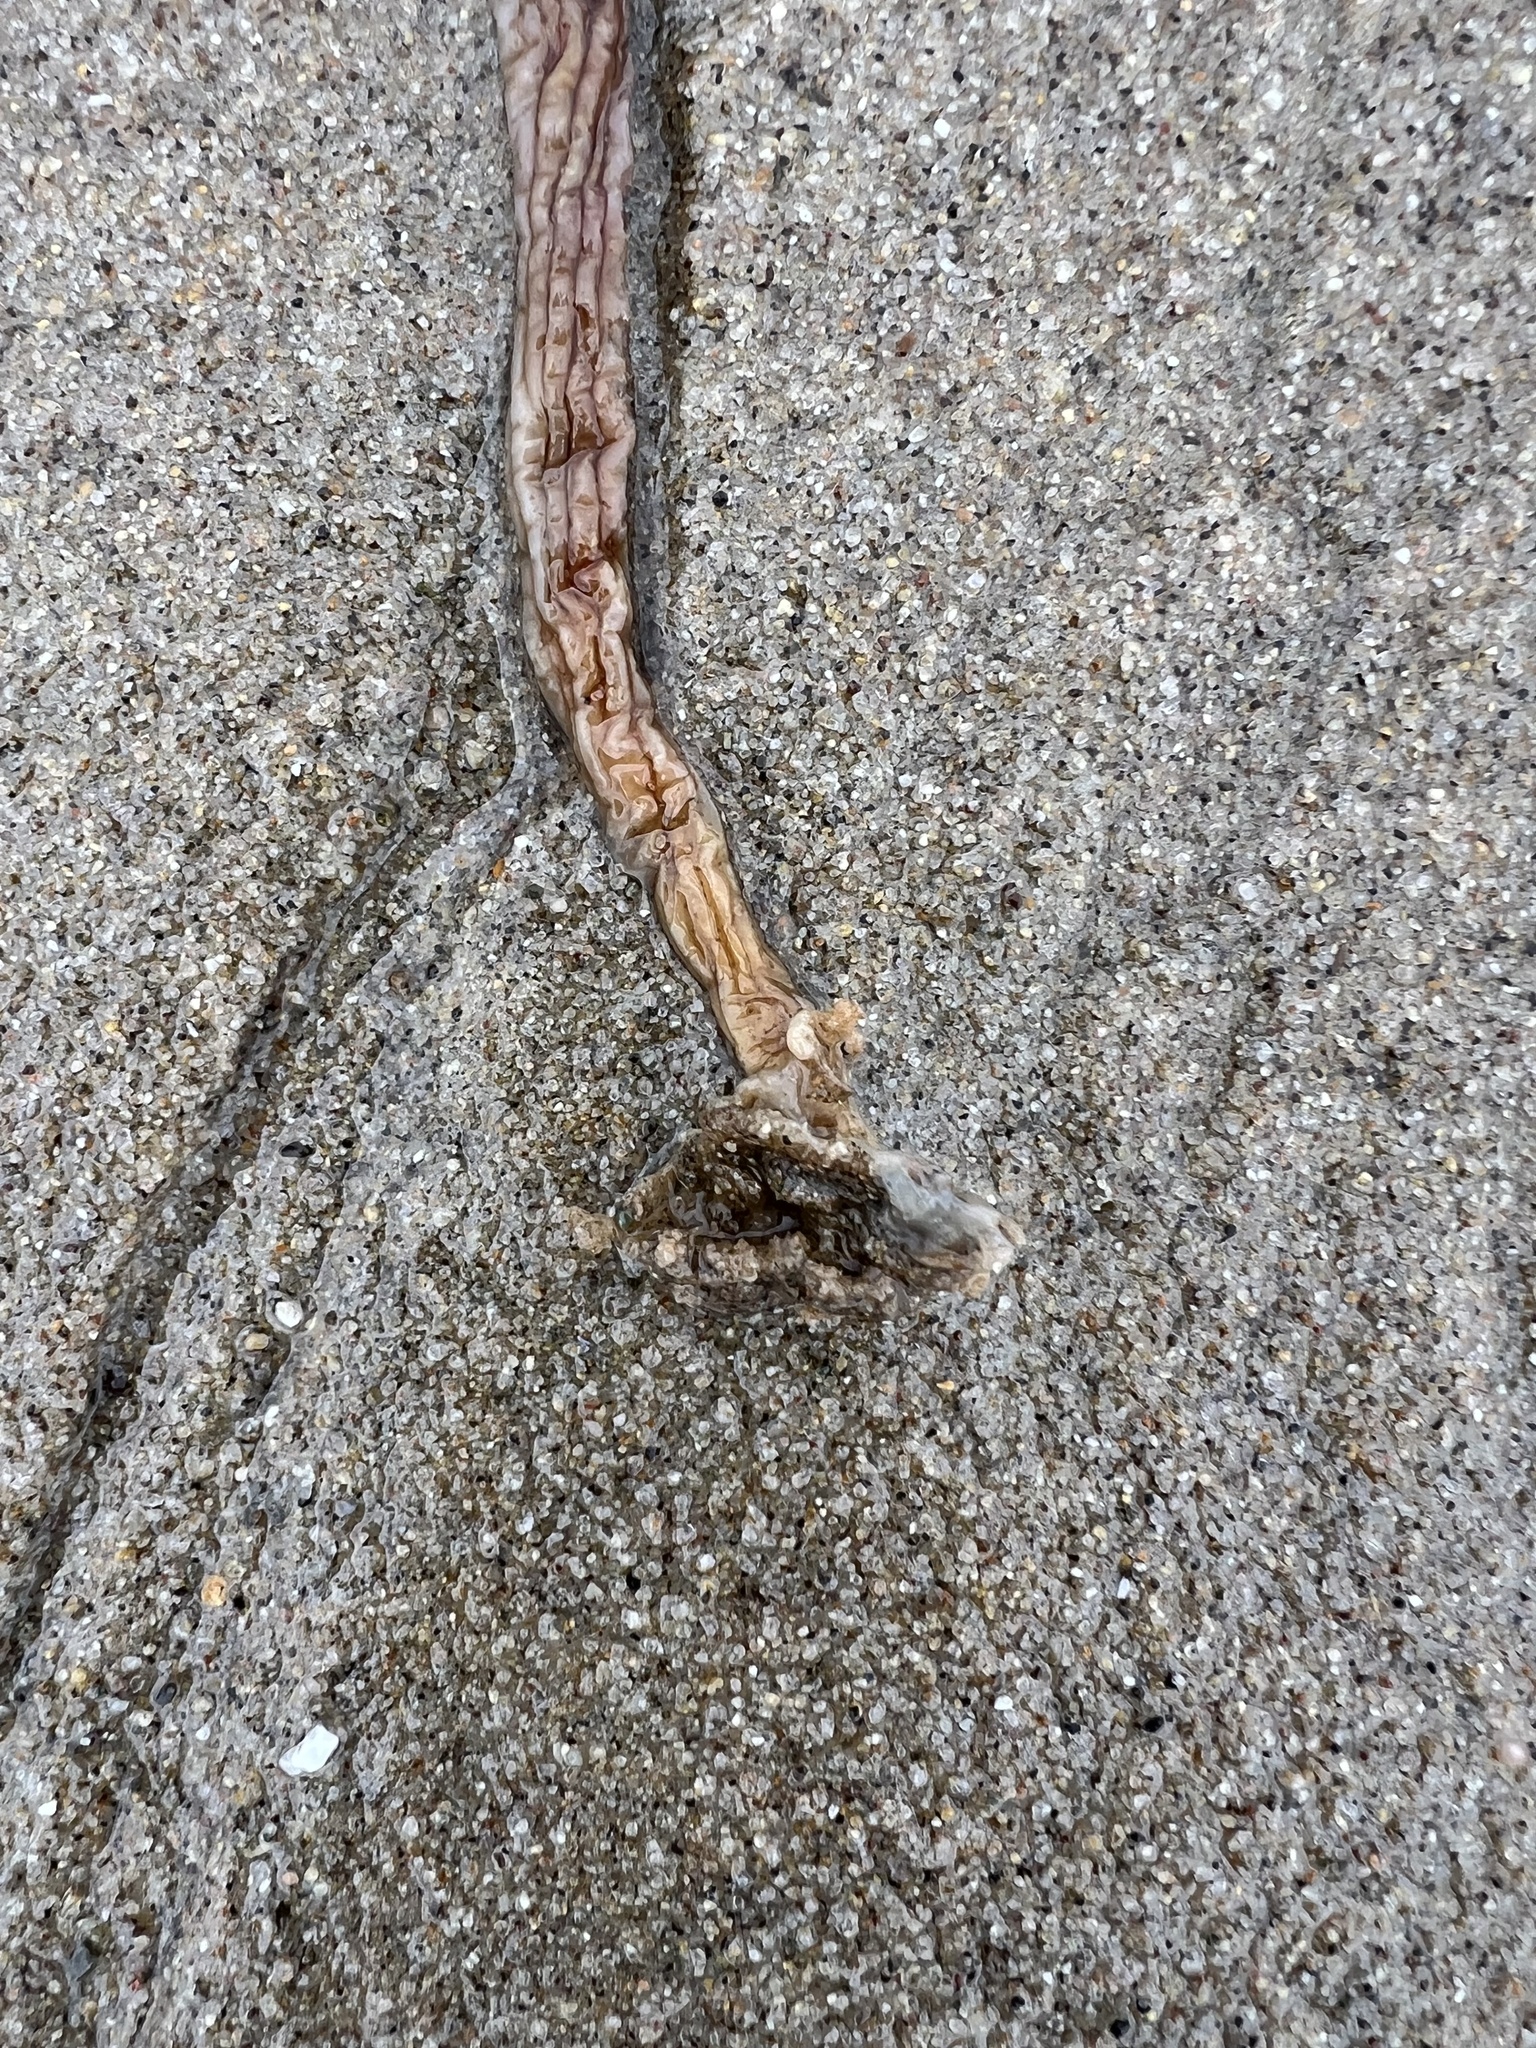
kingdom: Animalia
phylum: Chordata
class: Ascidiacea
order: Stolidobranchia
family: Styelidae
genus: Styela
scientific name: Styela montereyensis
